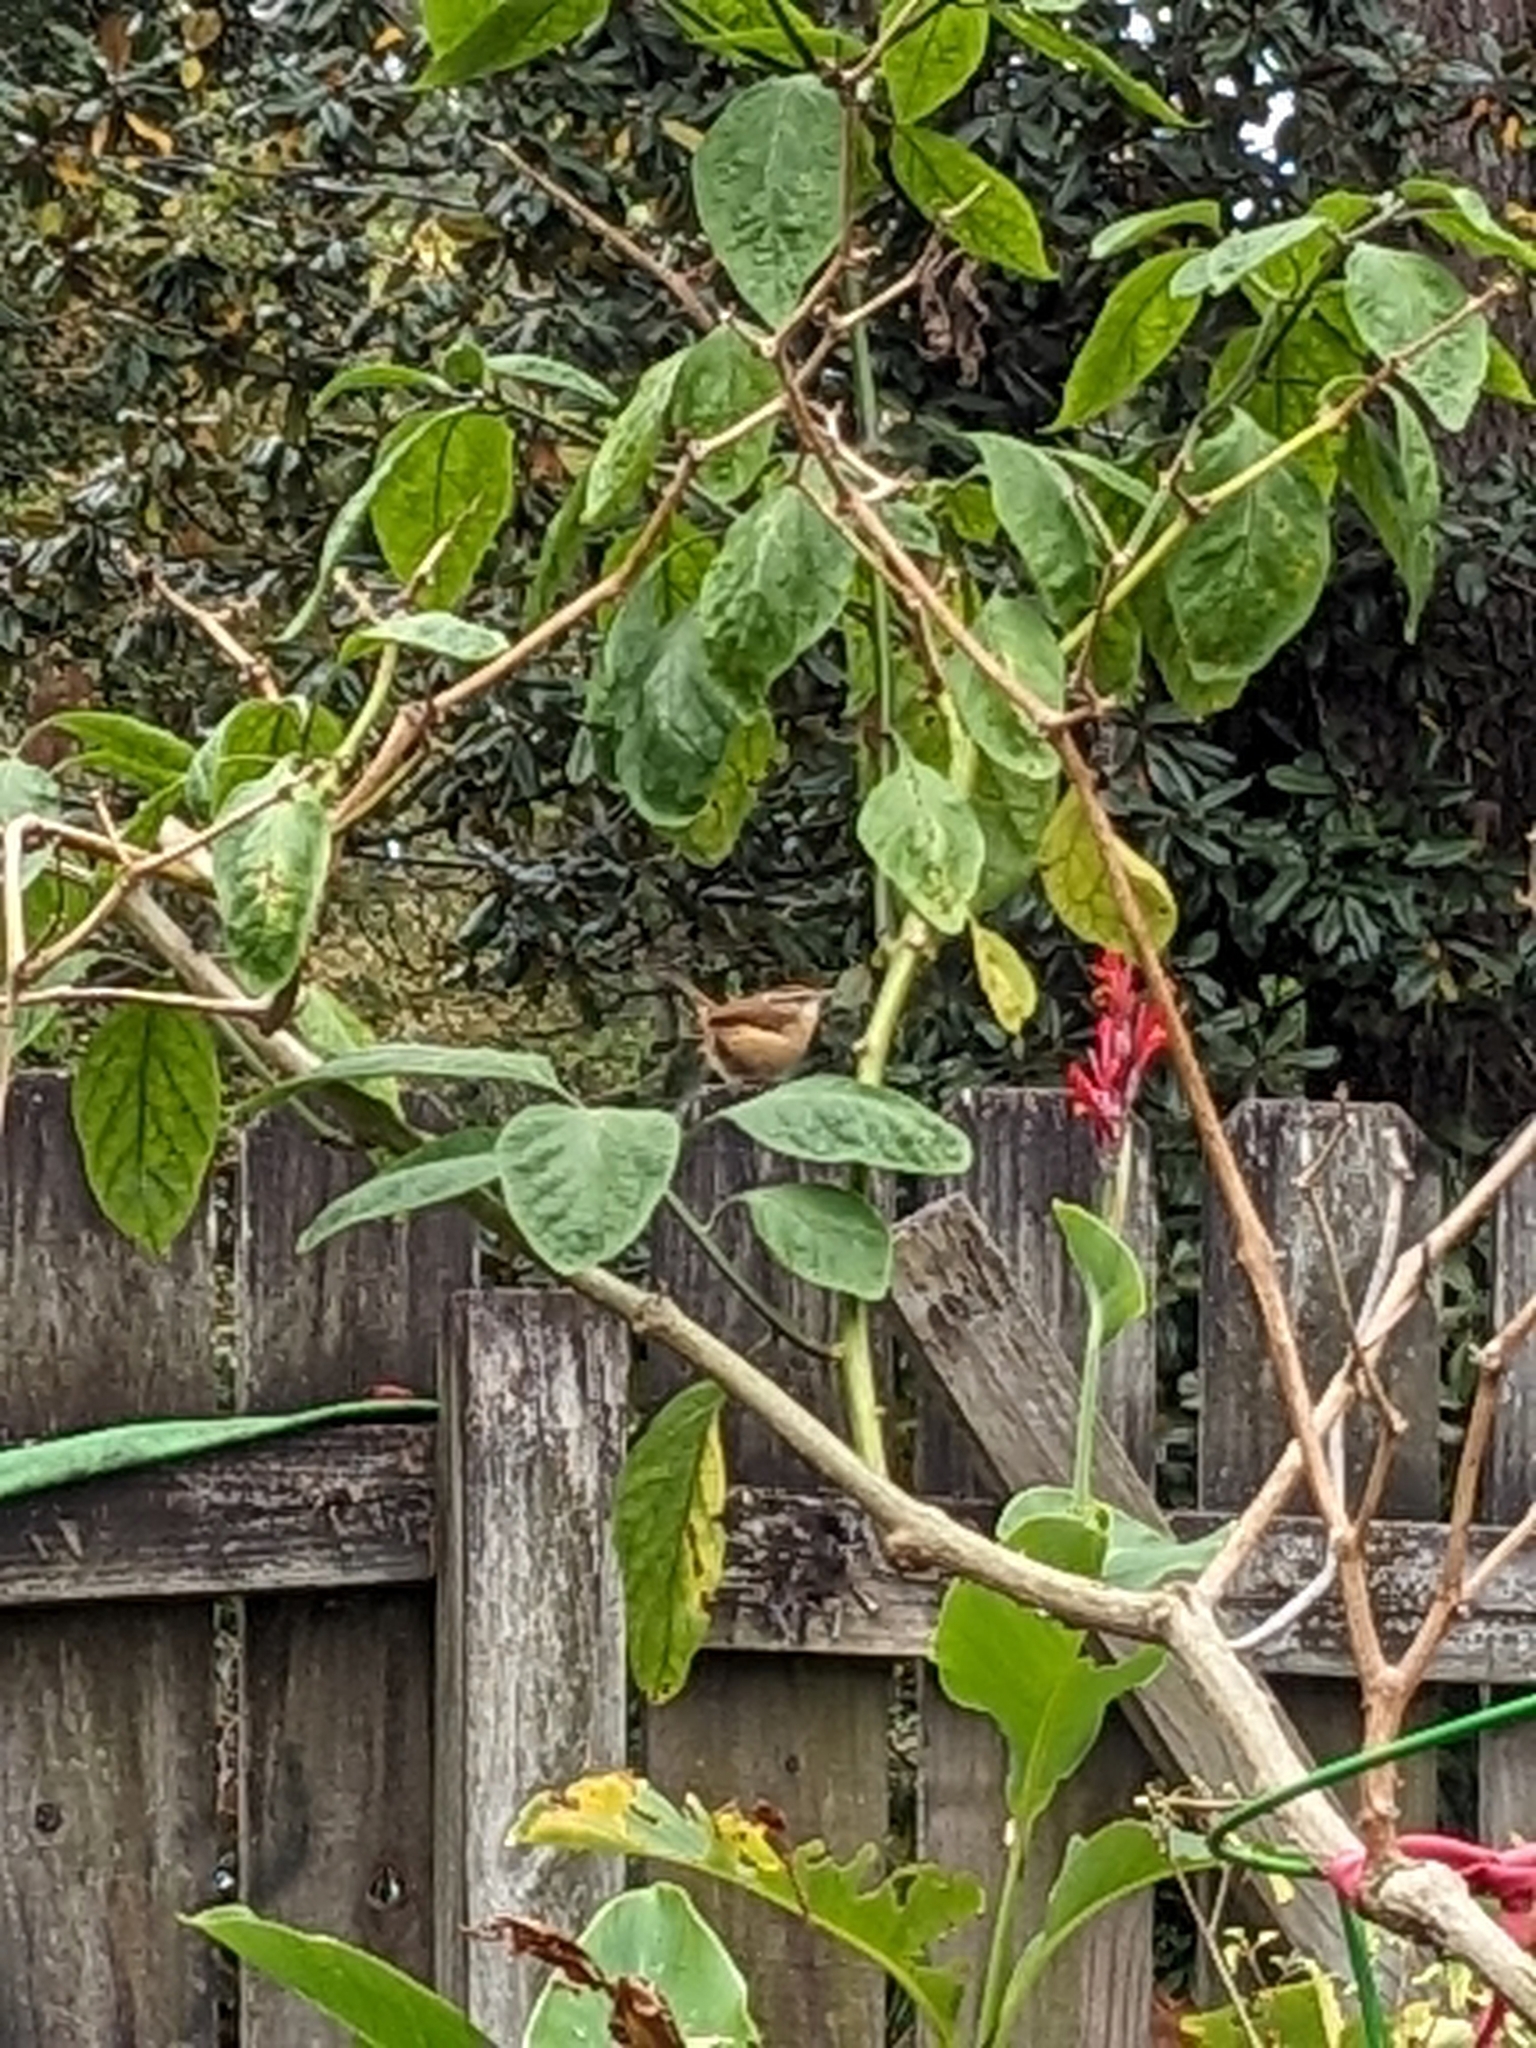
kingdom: Animalia
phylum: Chordata
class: Aves
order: Passeriformes
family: Troglodytidae
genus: Thryothorus
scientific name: Thryothorus ludovicianus
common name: Carolina wren
